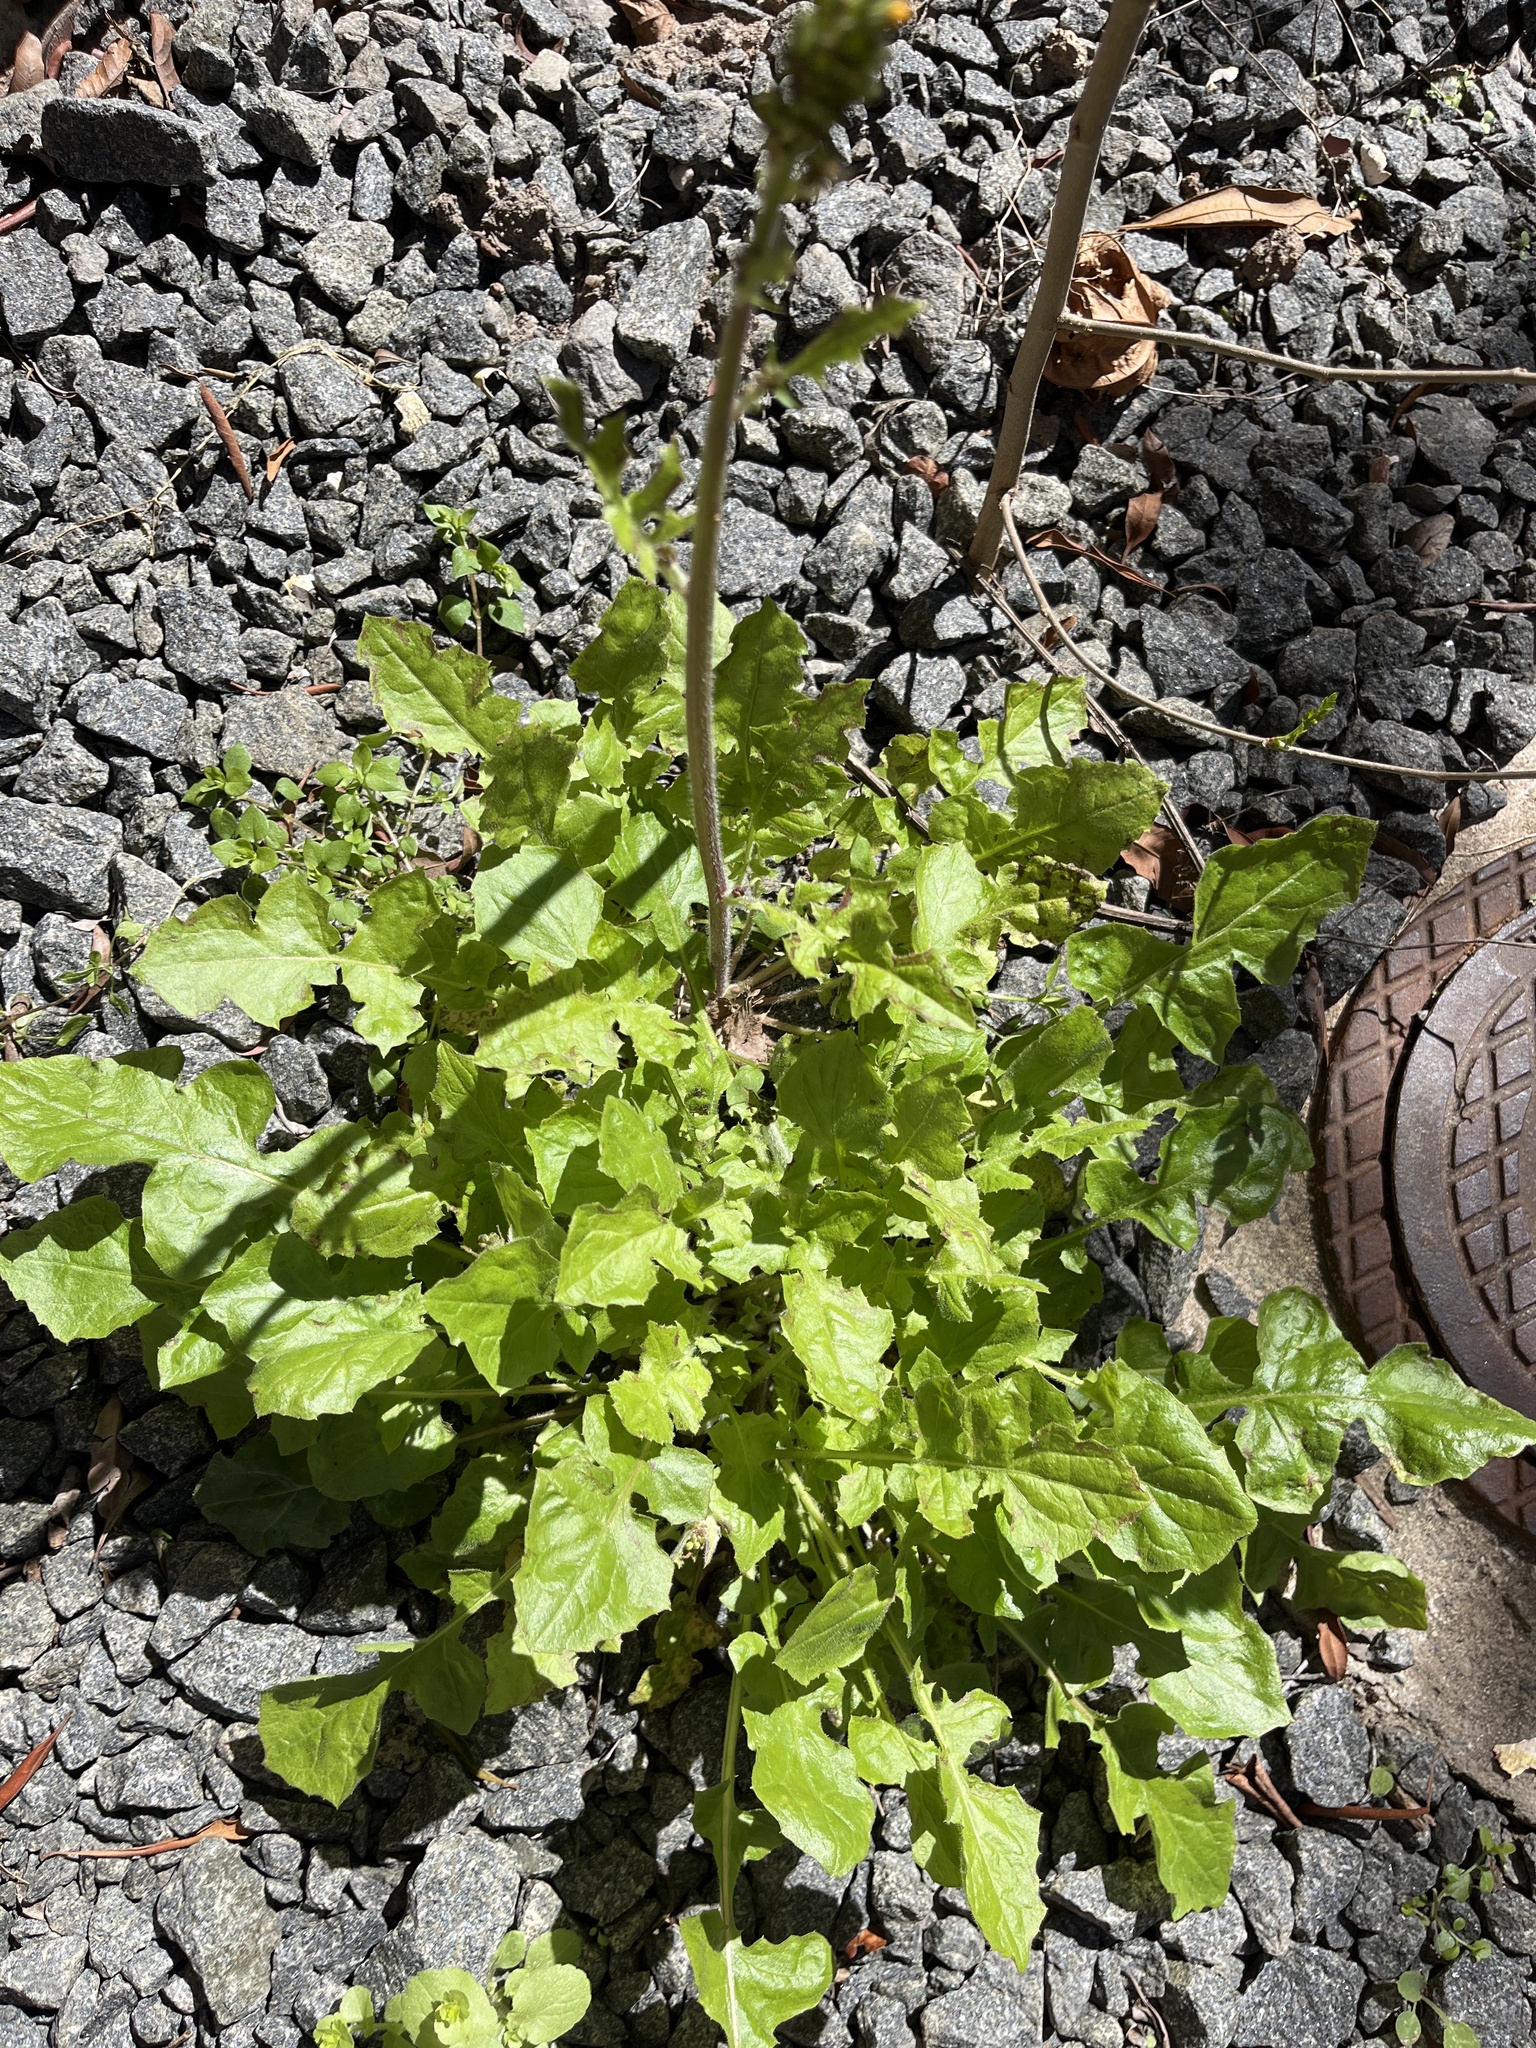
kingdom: Plantae
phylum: Tracheophyta
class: Magnoliopsida
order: Asterales
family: Asteraceae
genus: Youngia
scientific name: Youngia japonica
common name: Oriental false hawksbeard
